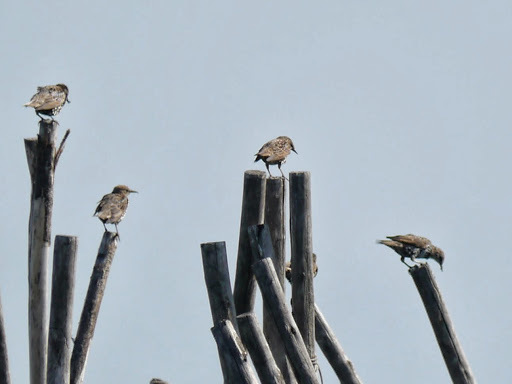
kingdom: Animalia
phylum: Chordata
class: Aves
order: Passeriformes
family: Sturnidae
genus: Sturnus
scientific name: Sturnus vulgaris
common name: Common starling
